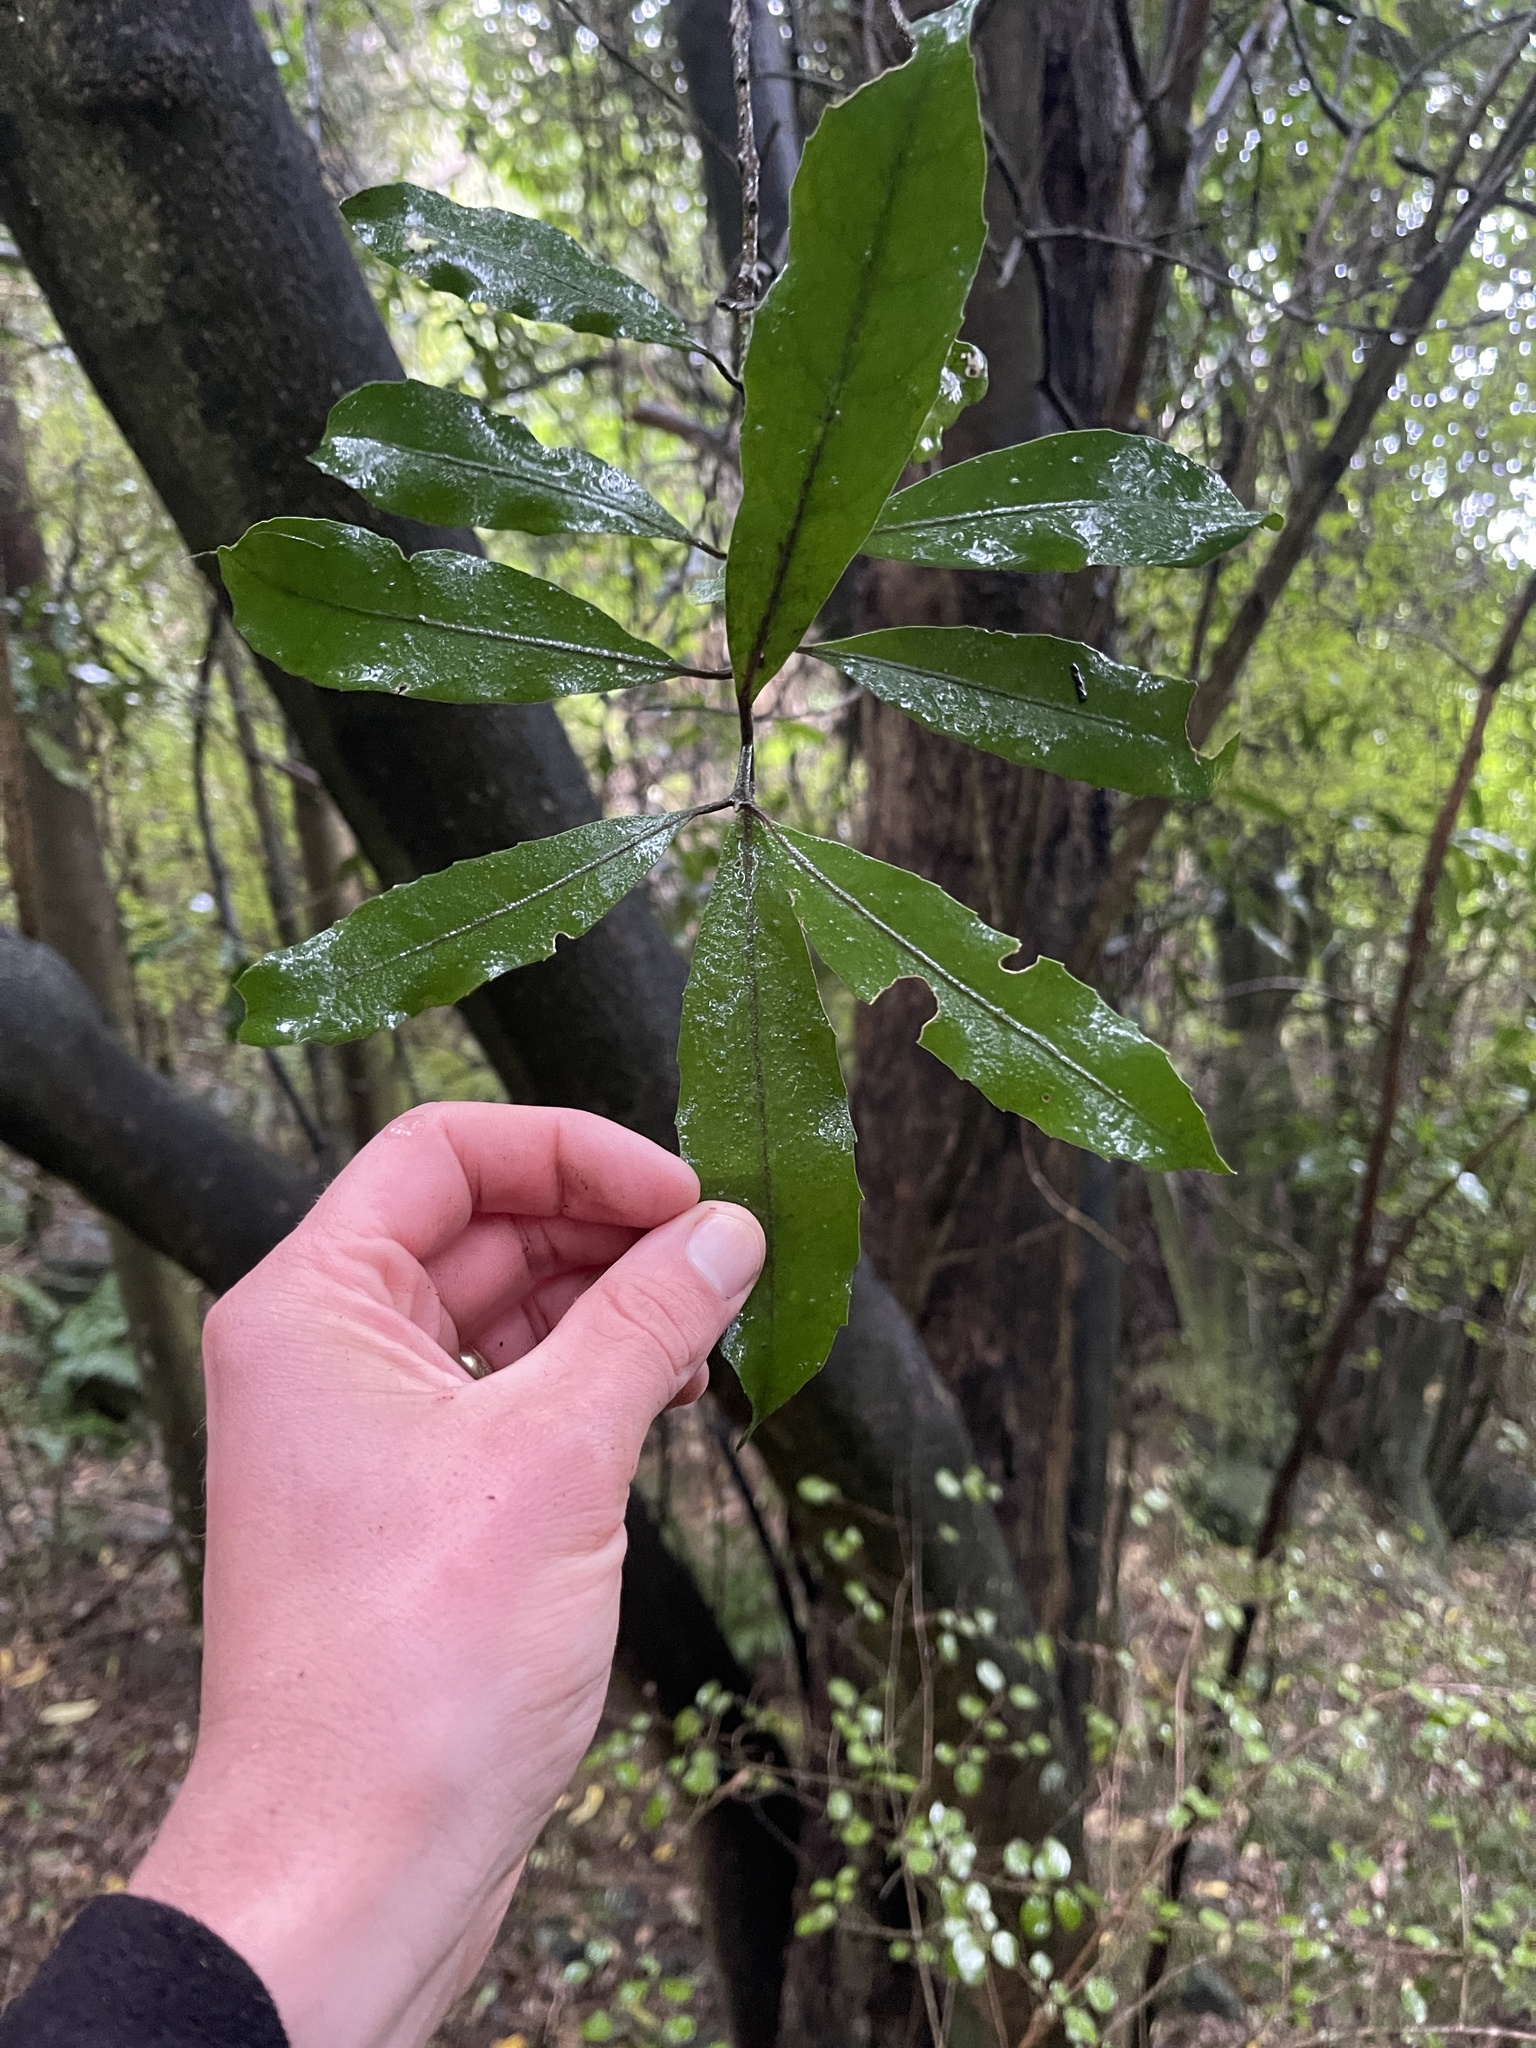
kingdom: Plantae
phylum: Tracheophyta
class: Magnoliopsida
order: Laurales
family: Monimiaceae
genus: Hedycarya
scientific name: Hedycarya arborea
